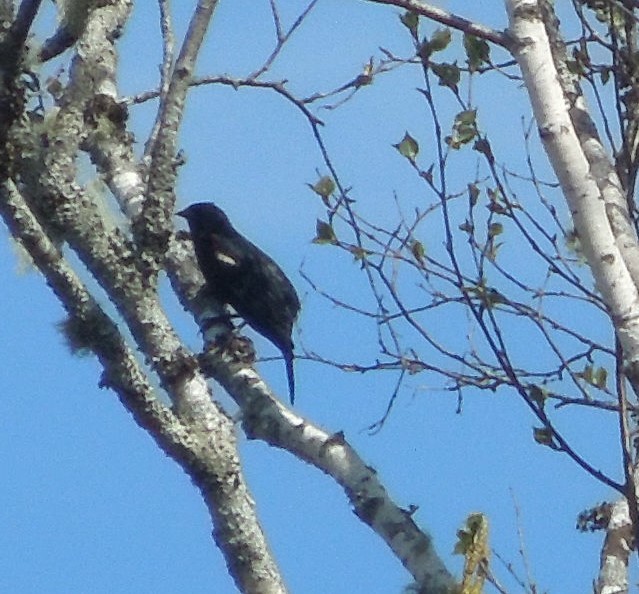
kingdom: Animalia
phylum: Chordata
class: Aves
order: Passeriformes
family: Icteridae
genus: Agelaius
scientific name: Agelaius phoeniceus
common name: Red-winged blackbird
